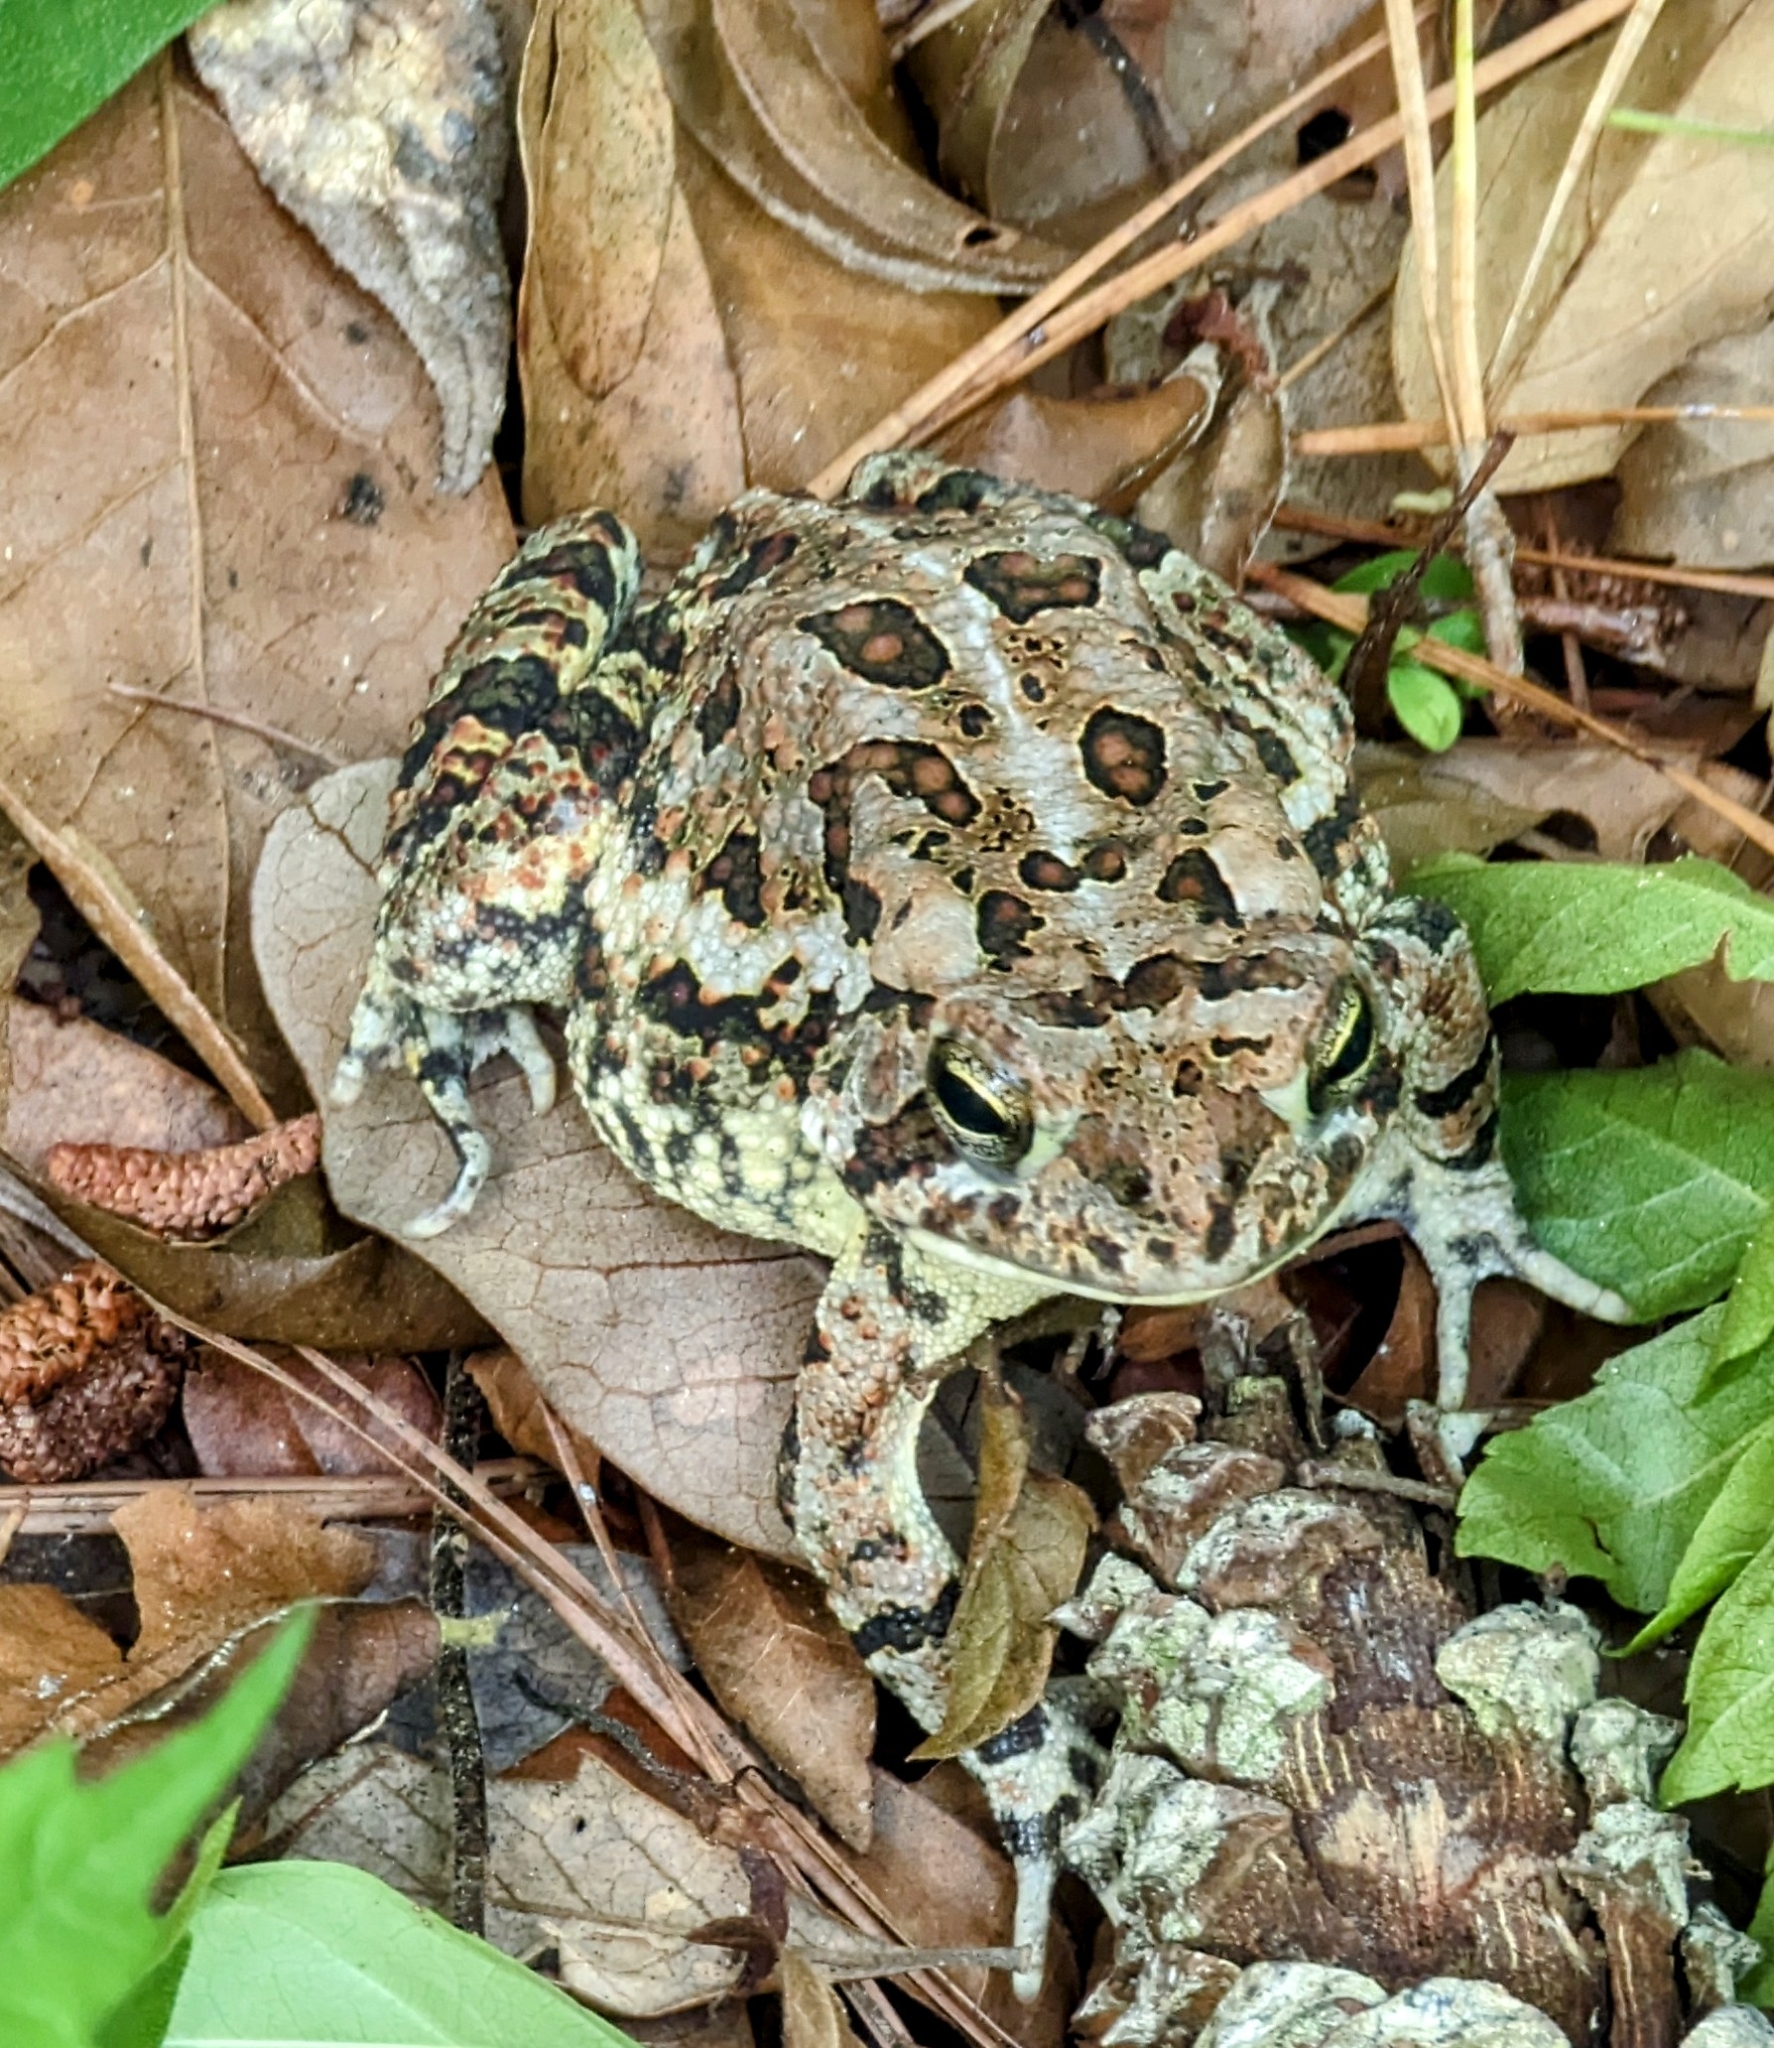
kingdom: Animalia
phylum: Chordata
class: Amphibia
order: Anura
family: Bufonidae
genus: Anaxyrus
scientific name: Anaxyrus terrestris
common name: Southern toad
